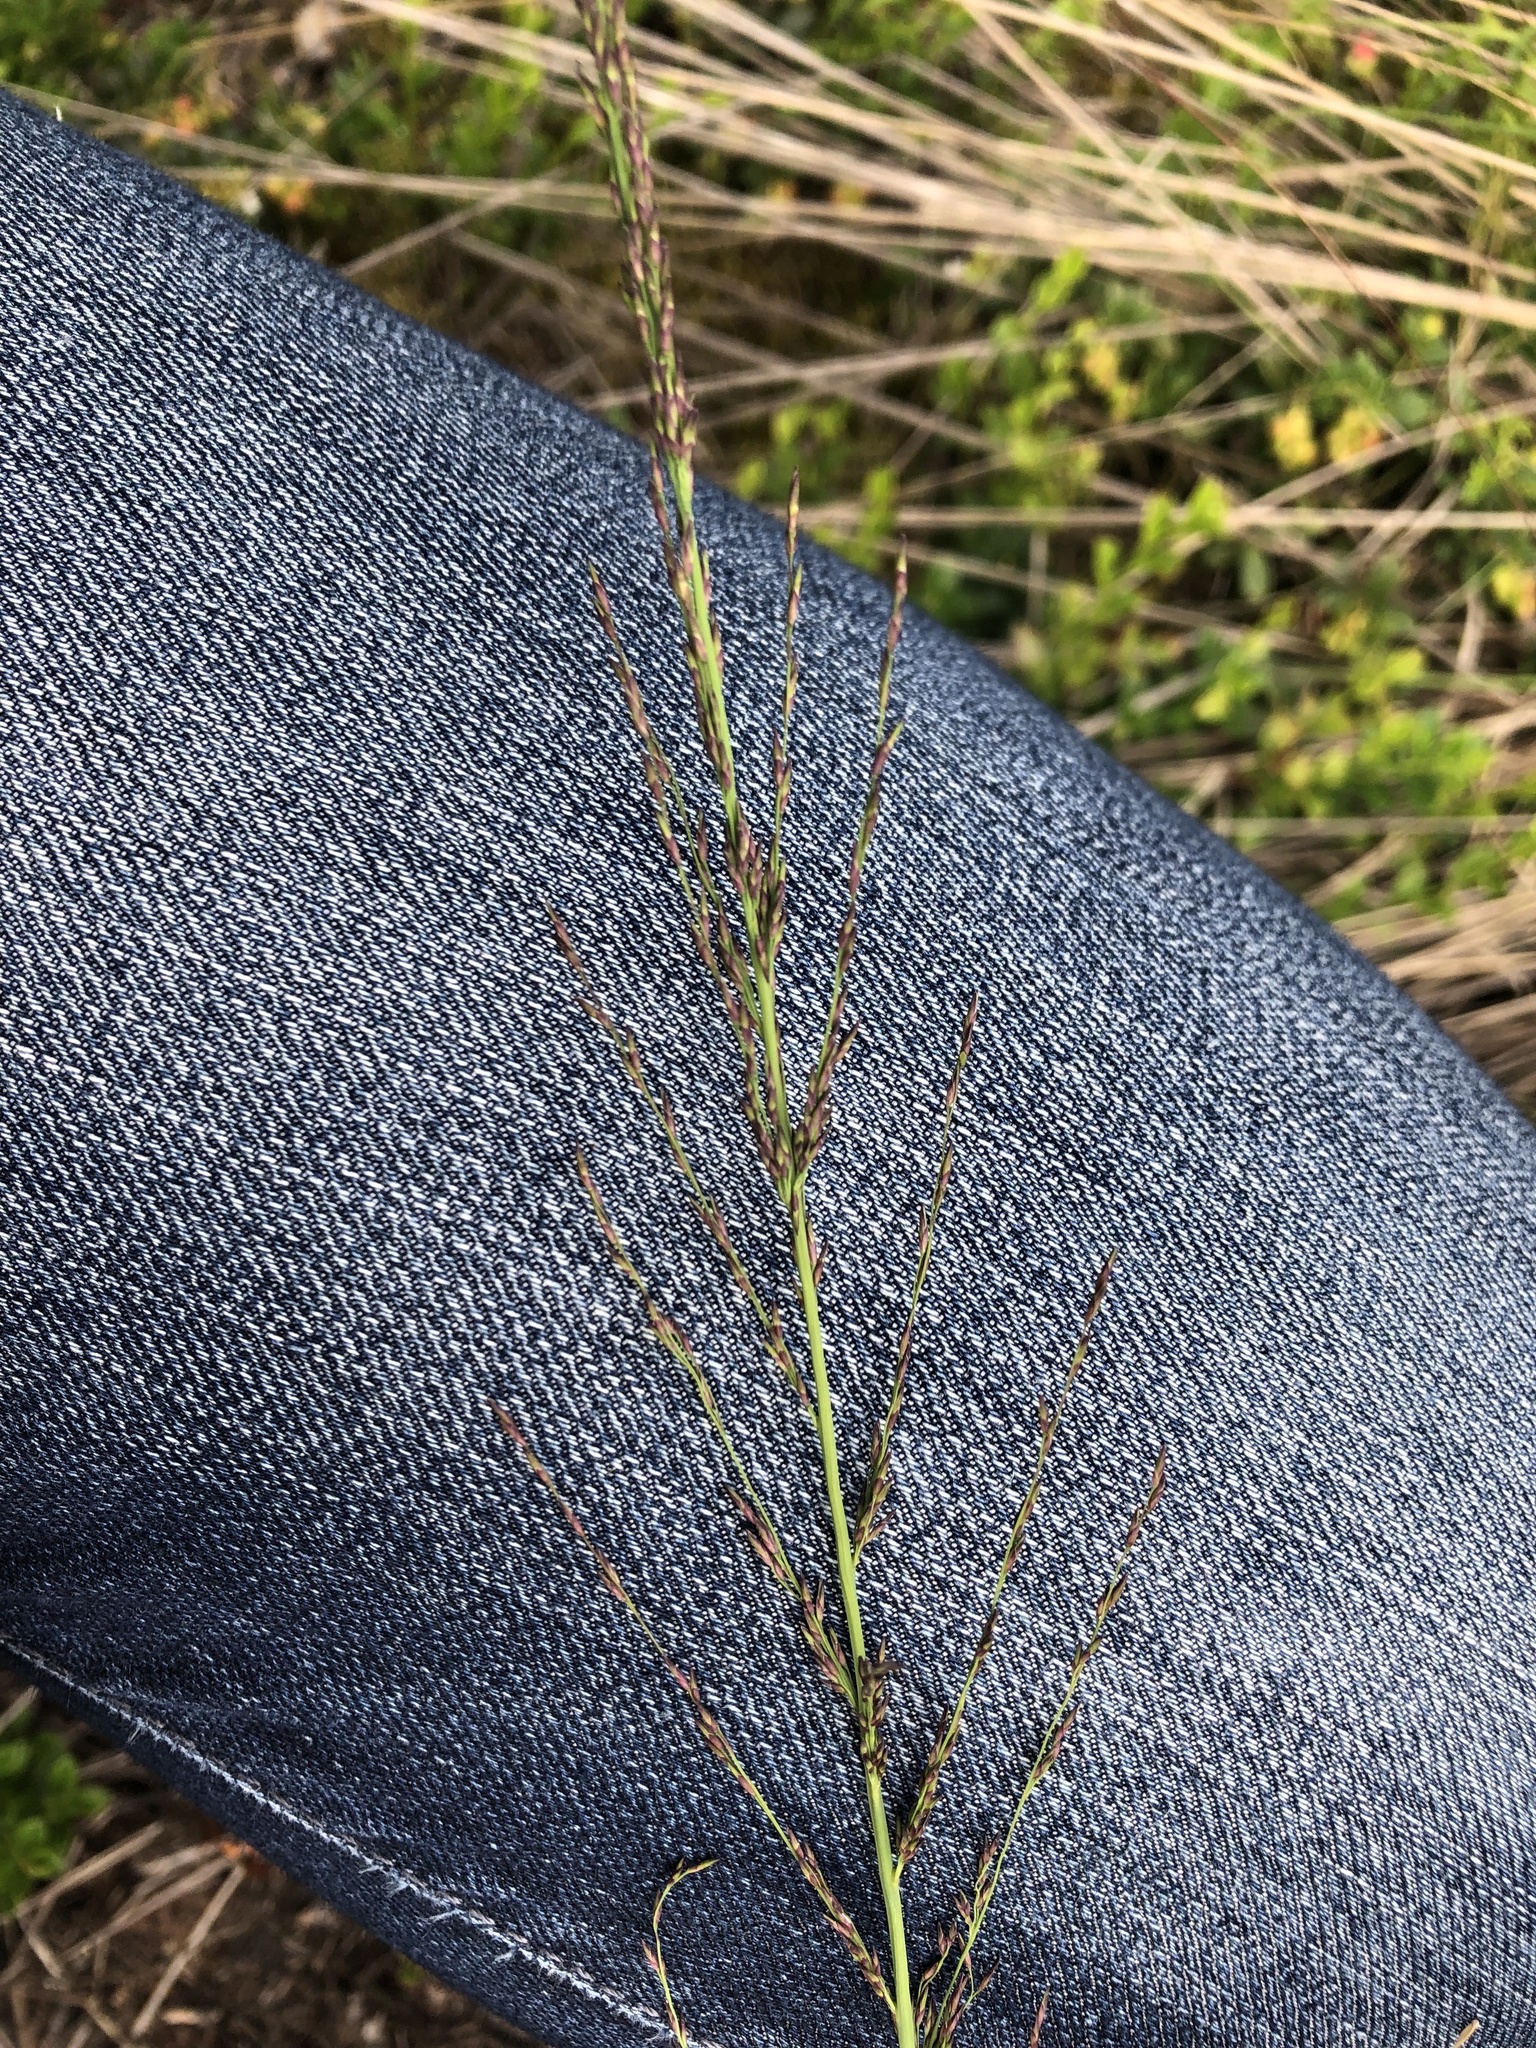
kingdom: Plantae
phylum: Tracheophyta
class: Liliopsida
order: Poales
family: Poaceae
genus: Molinia
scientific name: Molinia caerulea
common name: Purple moor-grass
